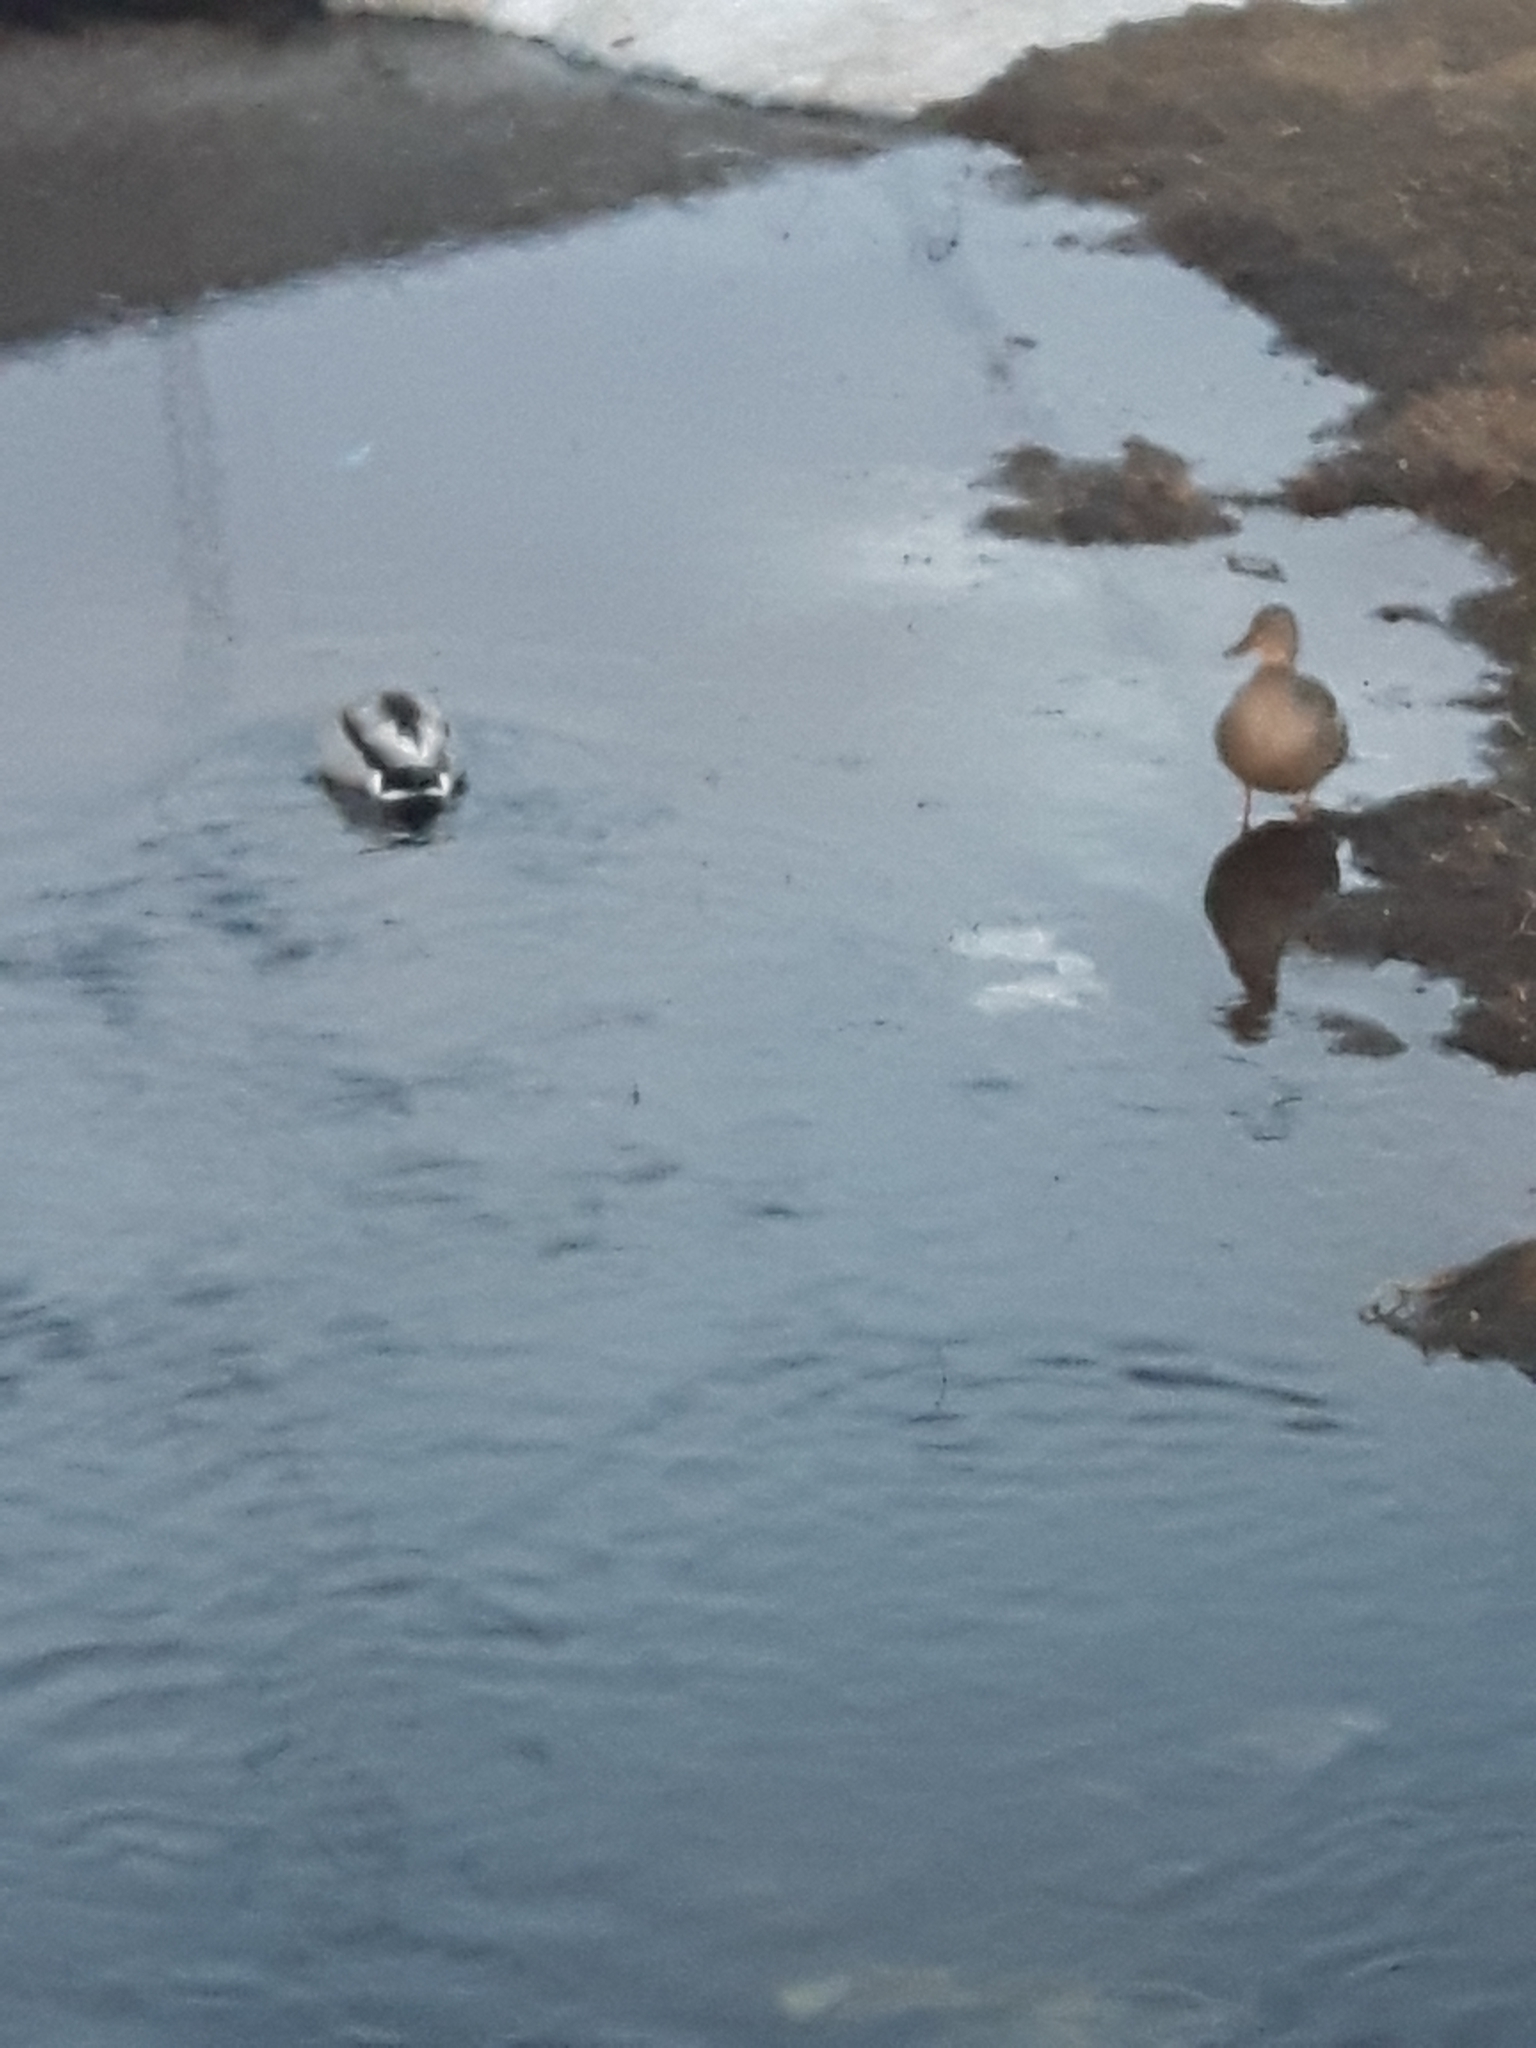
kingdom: Animalia
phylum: Chordata
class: Aves
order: Anseriformes
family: Anatidae
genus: Anas
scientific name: Anas platyrhynchos
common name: Mallard
